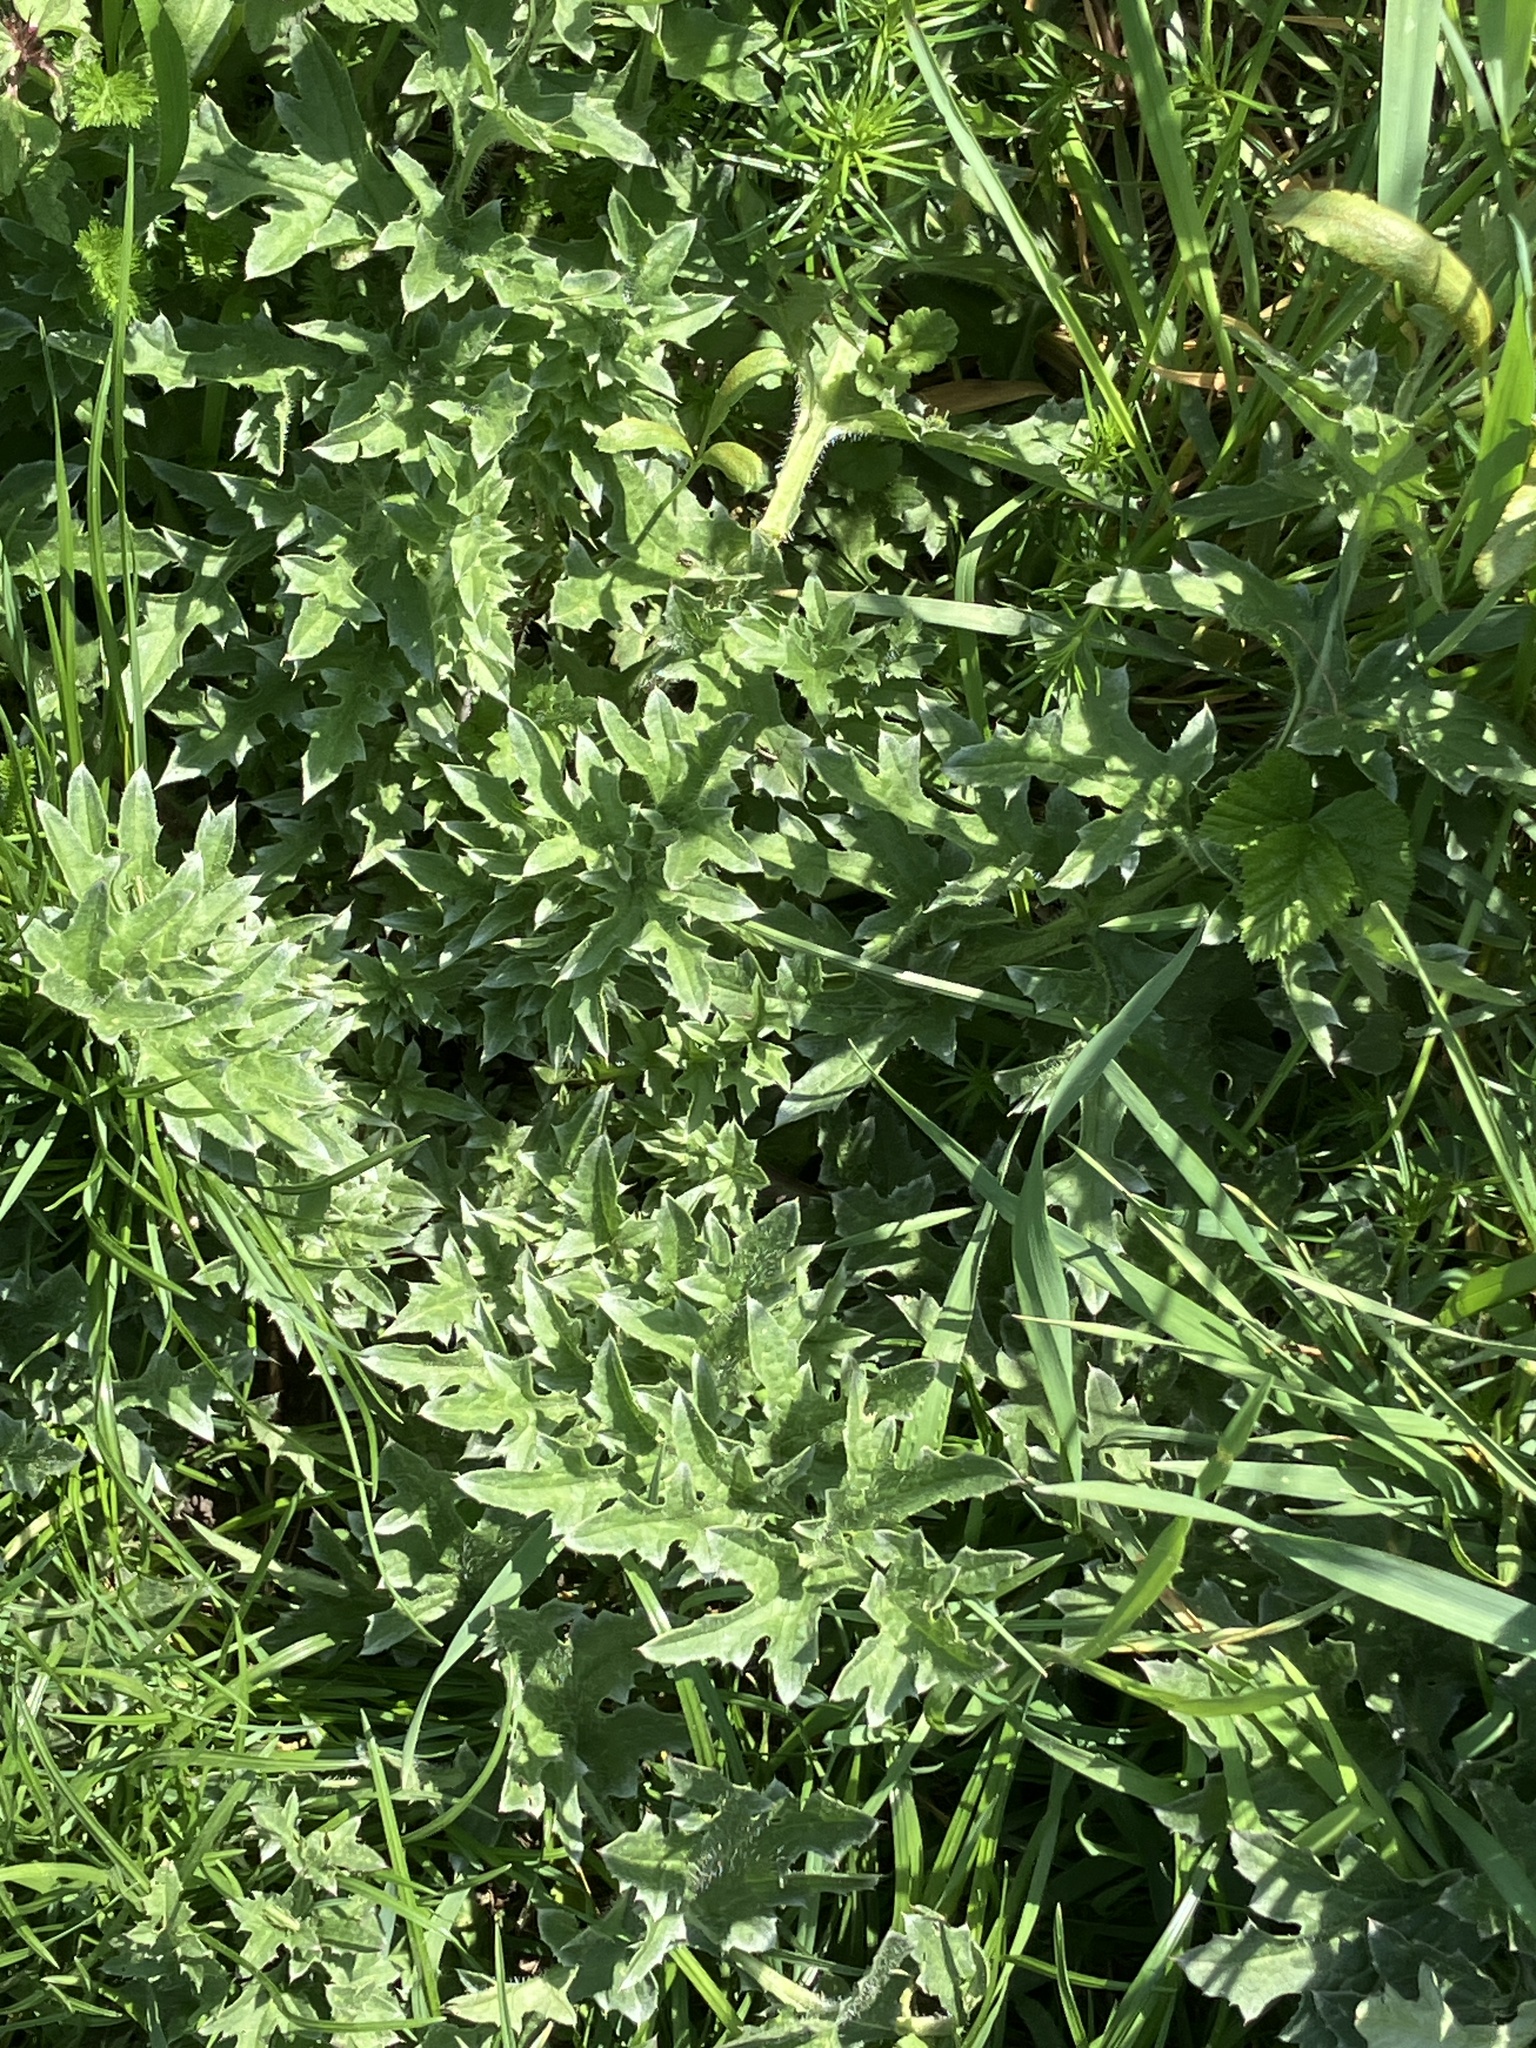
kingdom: Plantae
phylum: Tracheophyta
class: Magnoliopsida
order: Asterales
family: Asteraceae
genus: Carduus
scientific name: Carduus acanthoides
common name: Plumeless thistle
